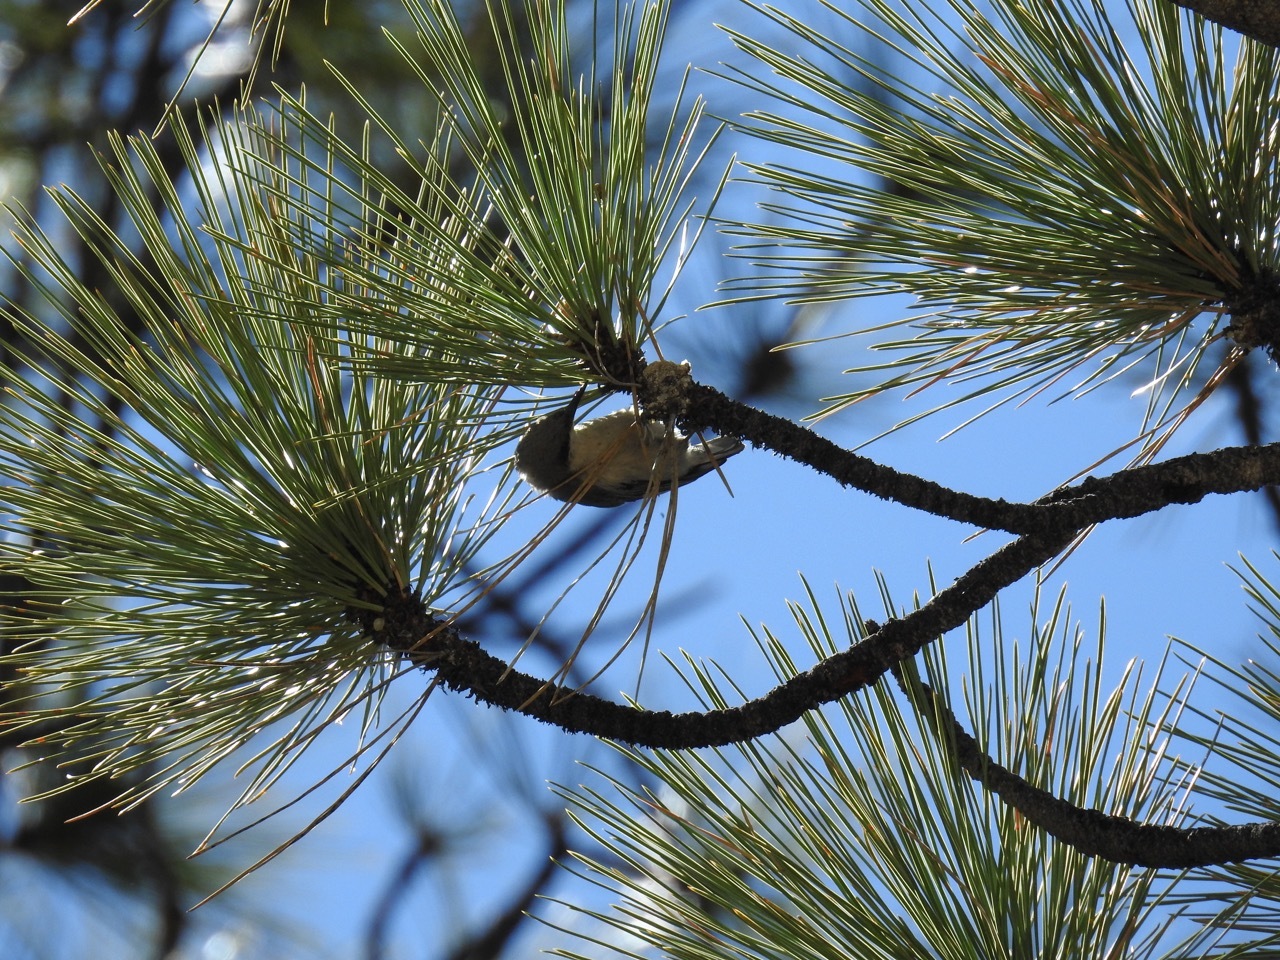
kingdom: Animalia
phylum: Chordata
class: Aves
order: Passeriformes
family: Sittidae
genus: Sitta
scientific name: Sitta pygmaea
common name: Pygmy nuthatch
